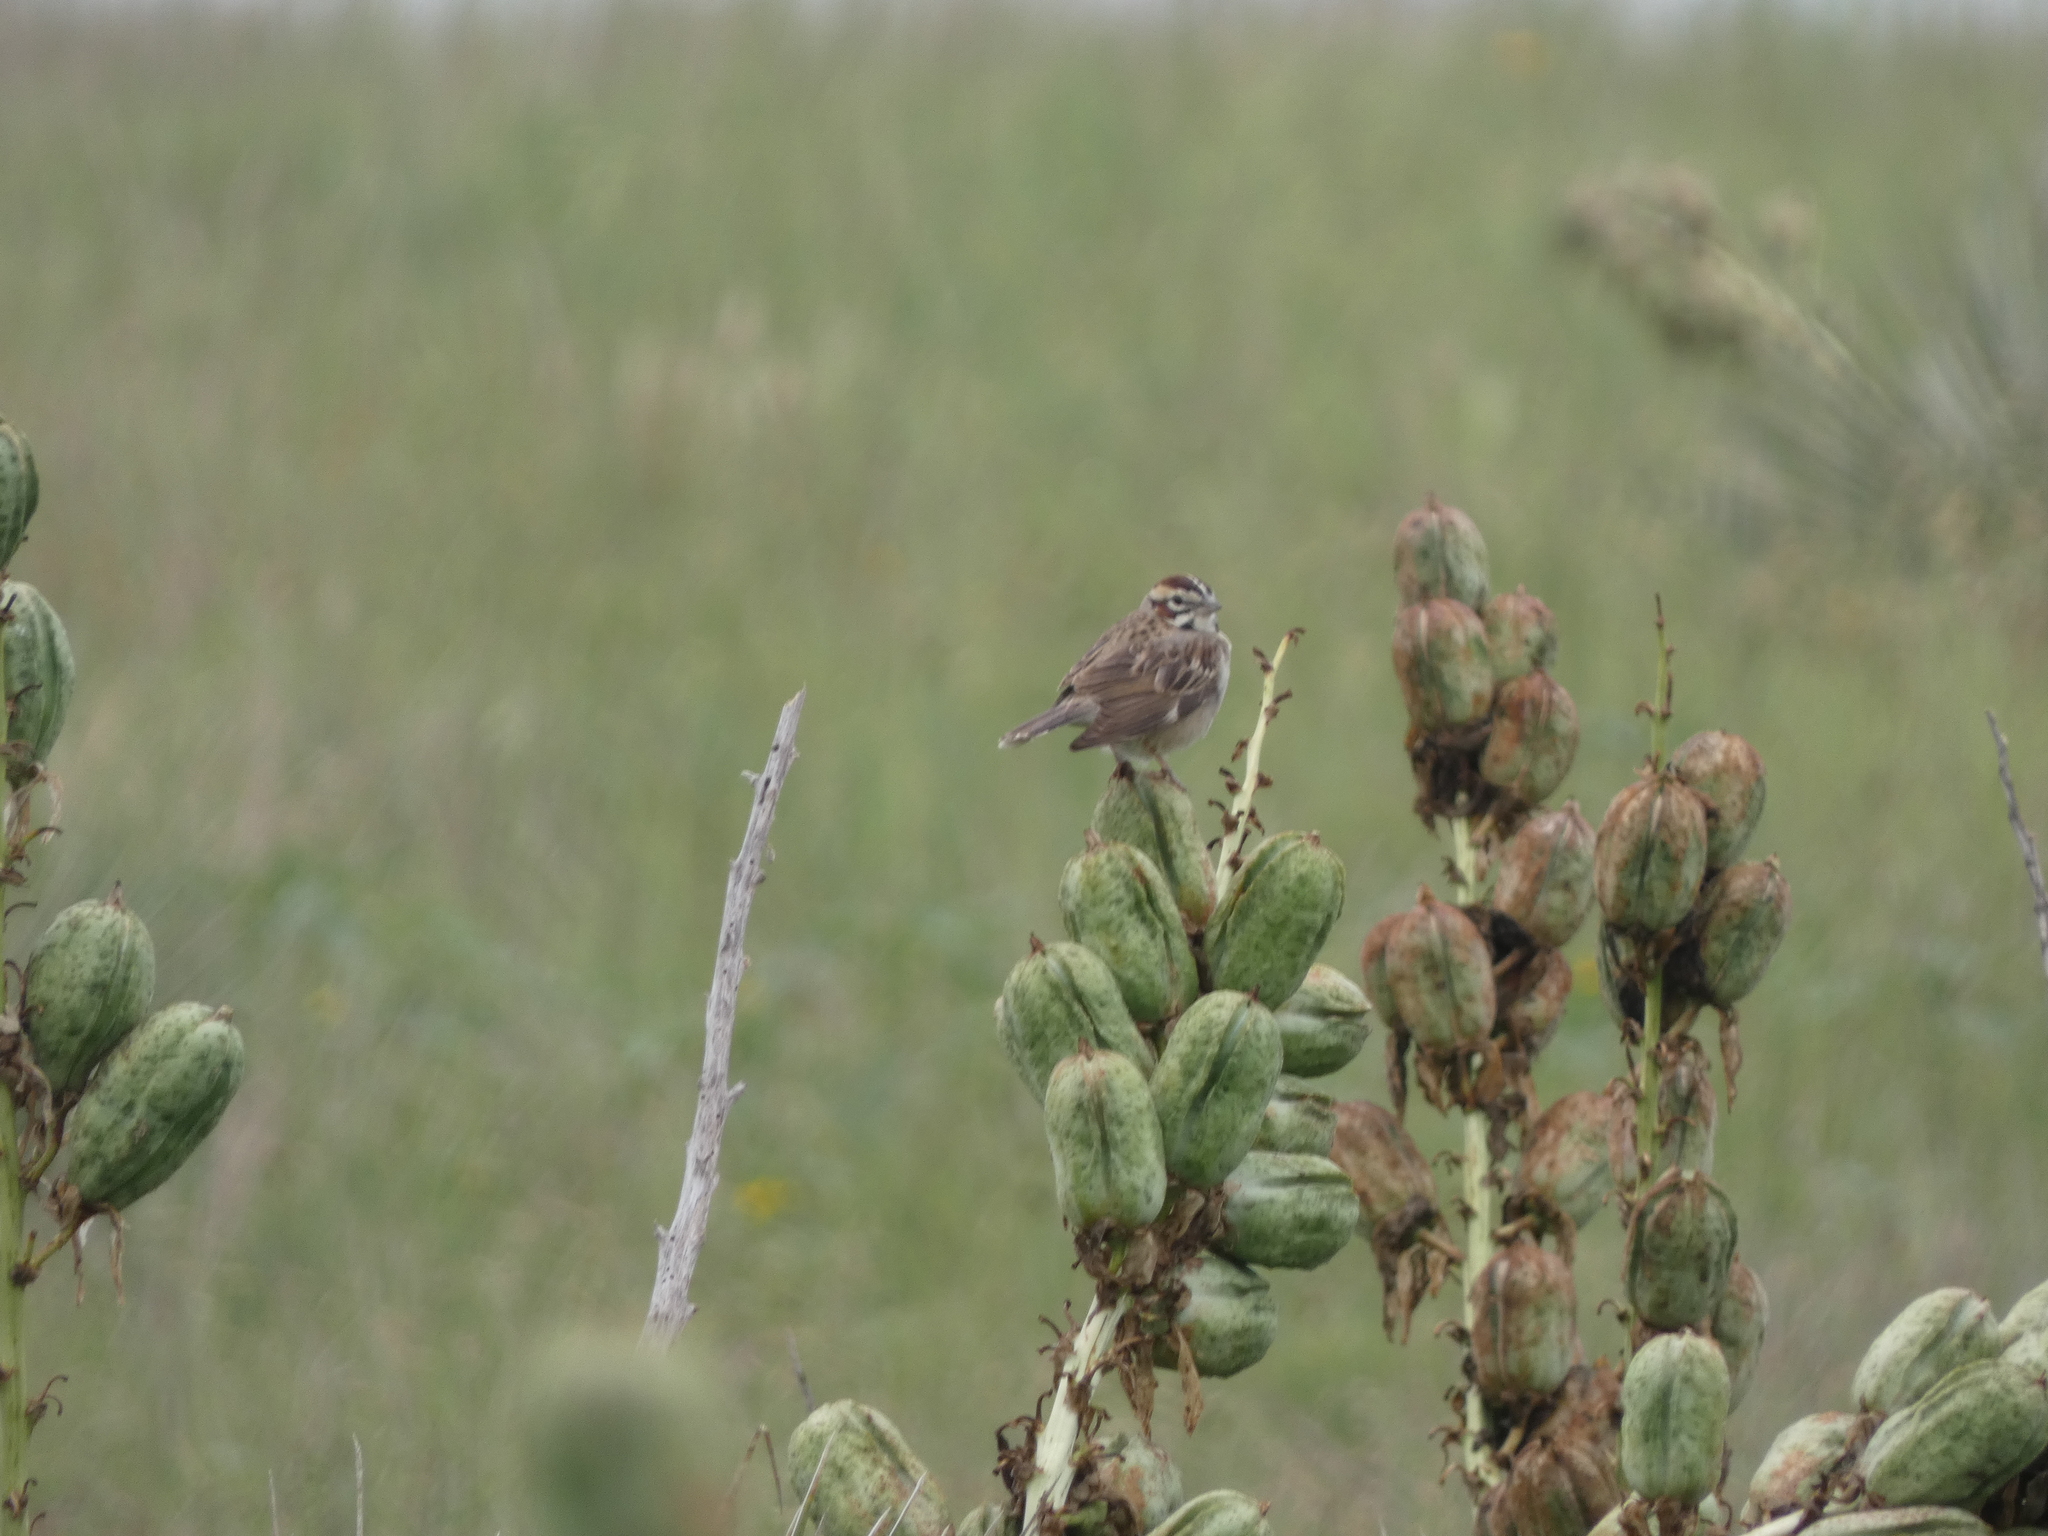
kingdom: Animalia
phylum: Chordata
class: Aves
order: Passeriformes
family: Passerellidae
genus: Chondestes
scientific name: Chondestes grammacus
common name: Lark sparrow
